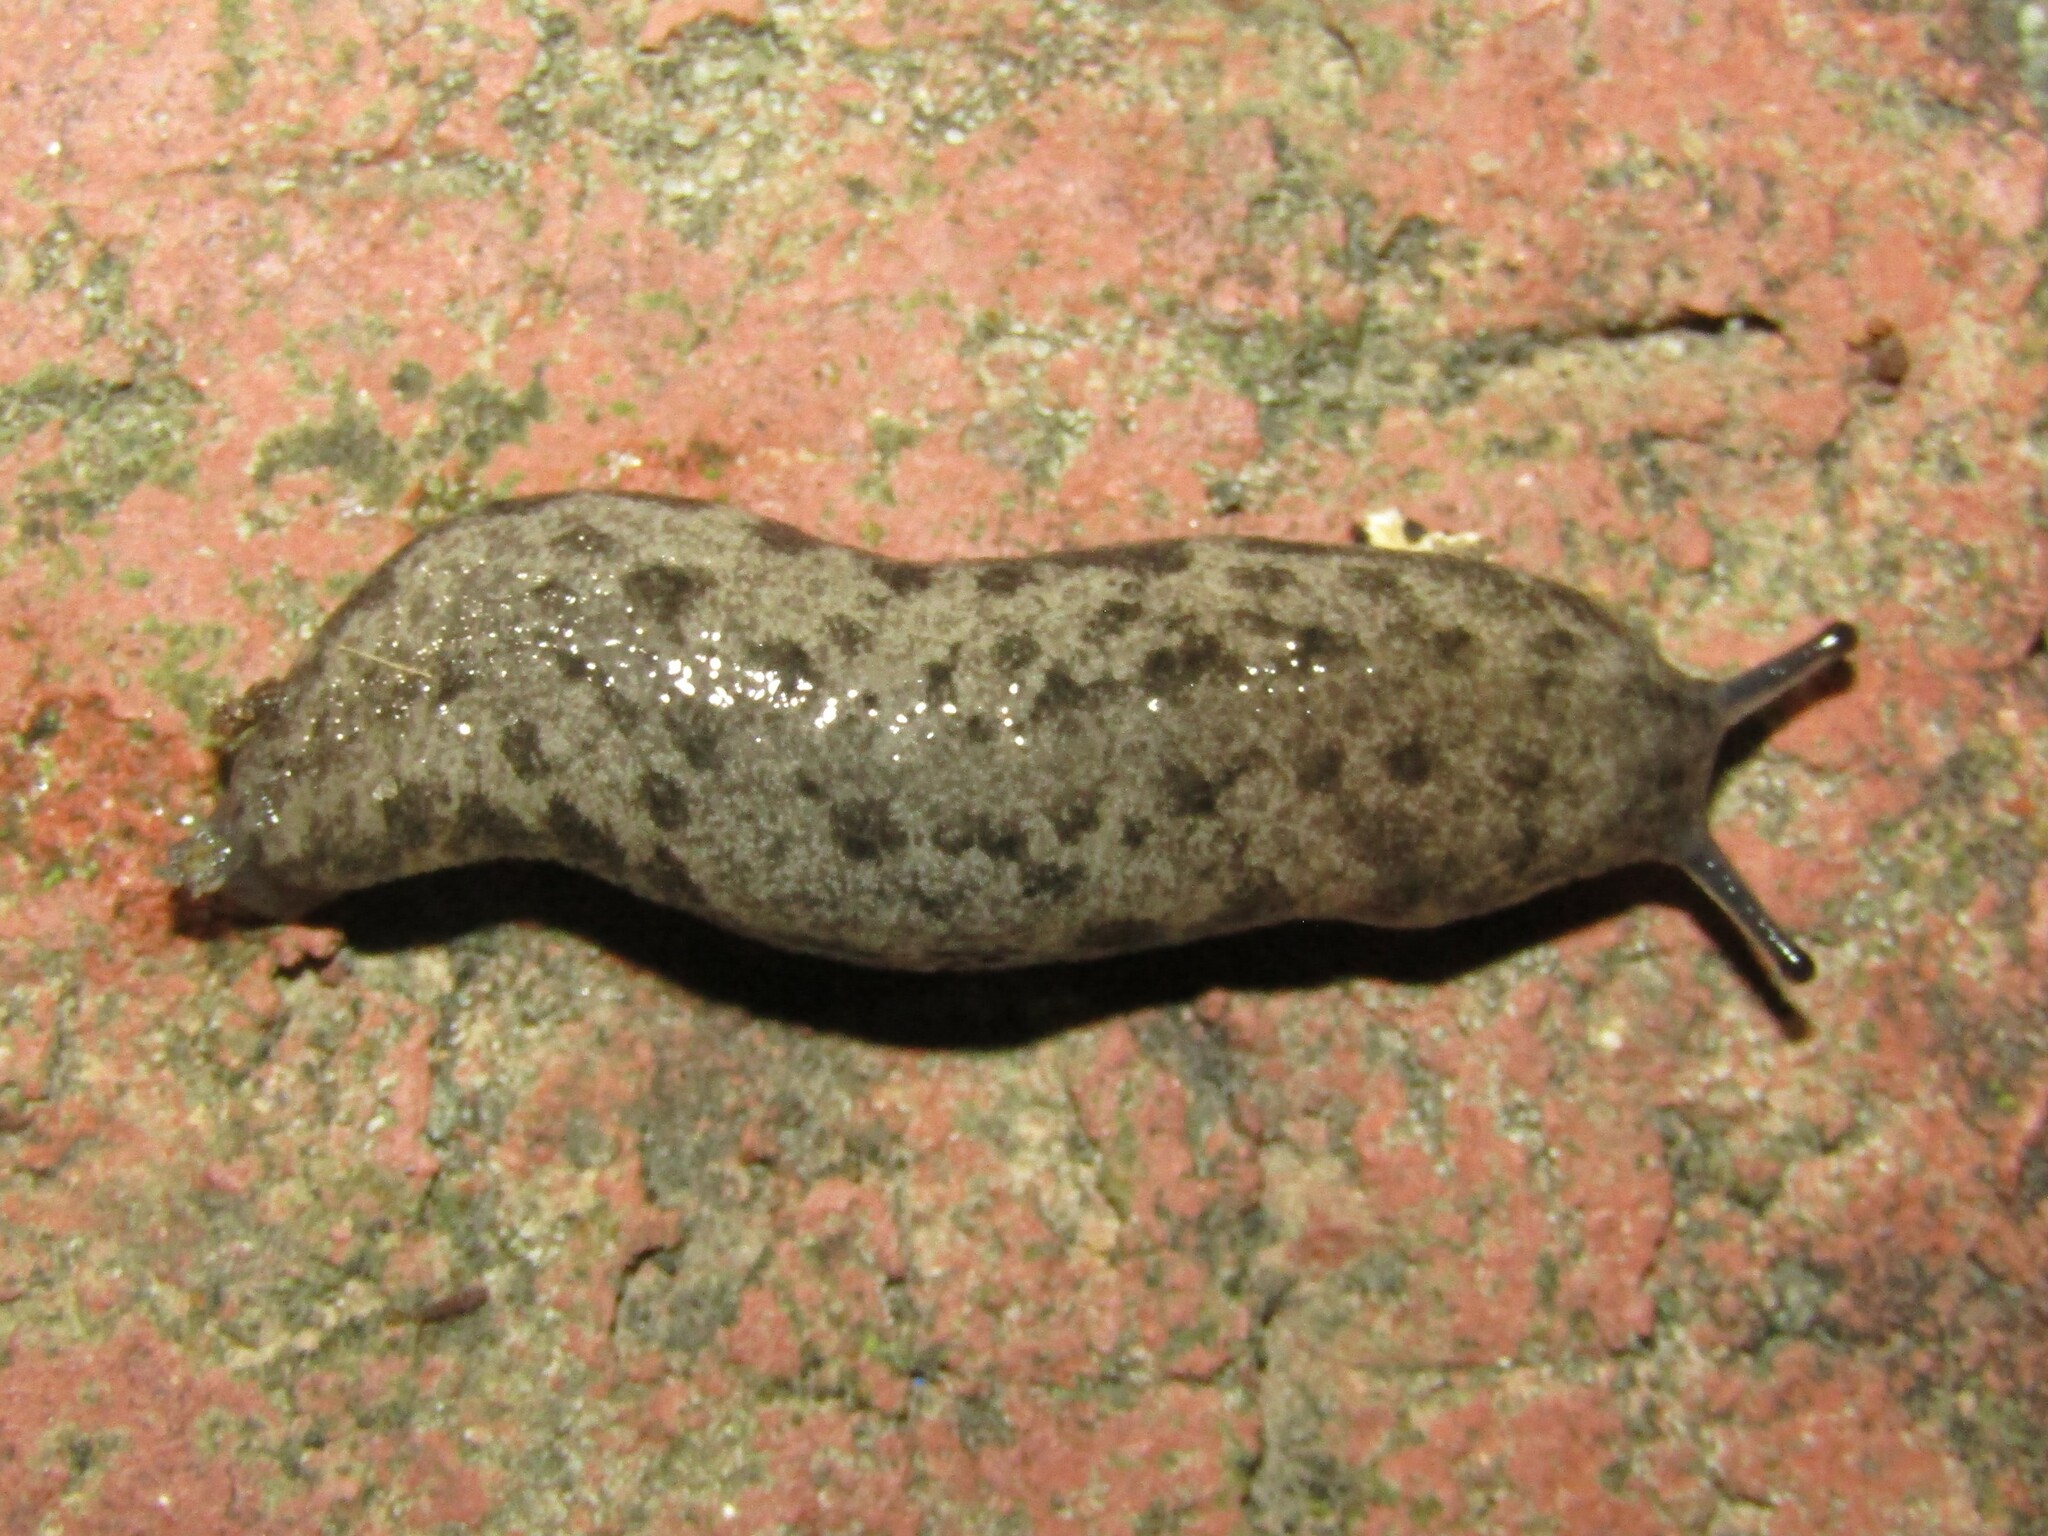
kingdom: Animalia
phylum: Mollusca
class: Gastropoda
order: Stylommatophora
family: Philomycidae
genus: Megapallifera
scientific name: Megapallifera mutabilis
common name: Changeable mantleslug
